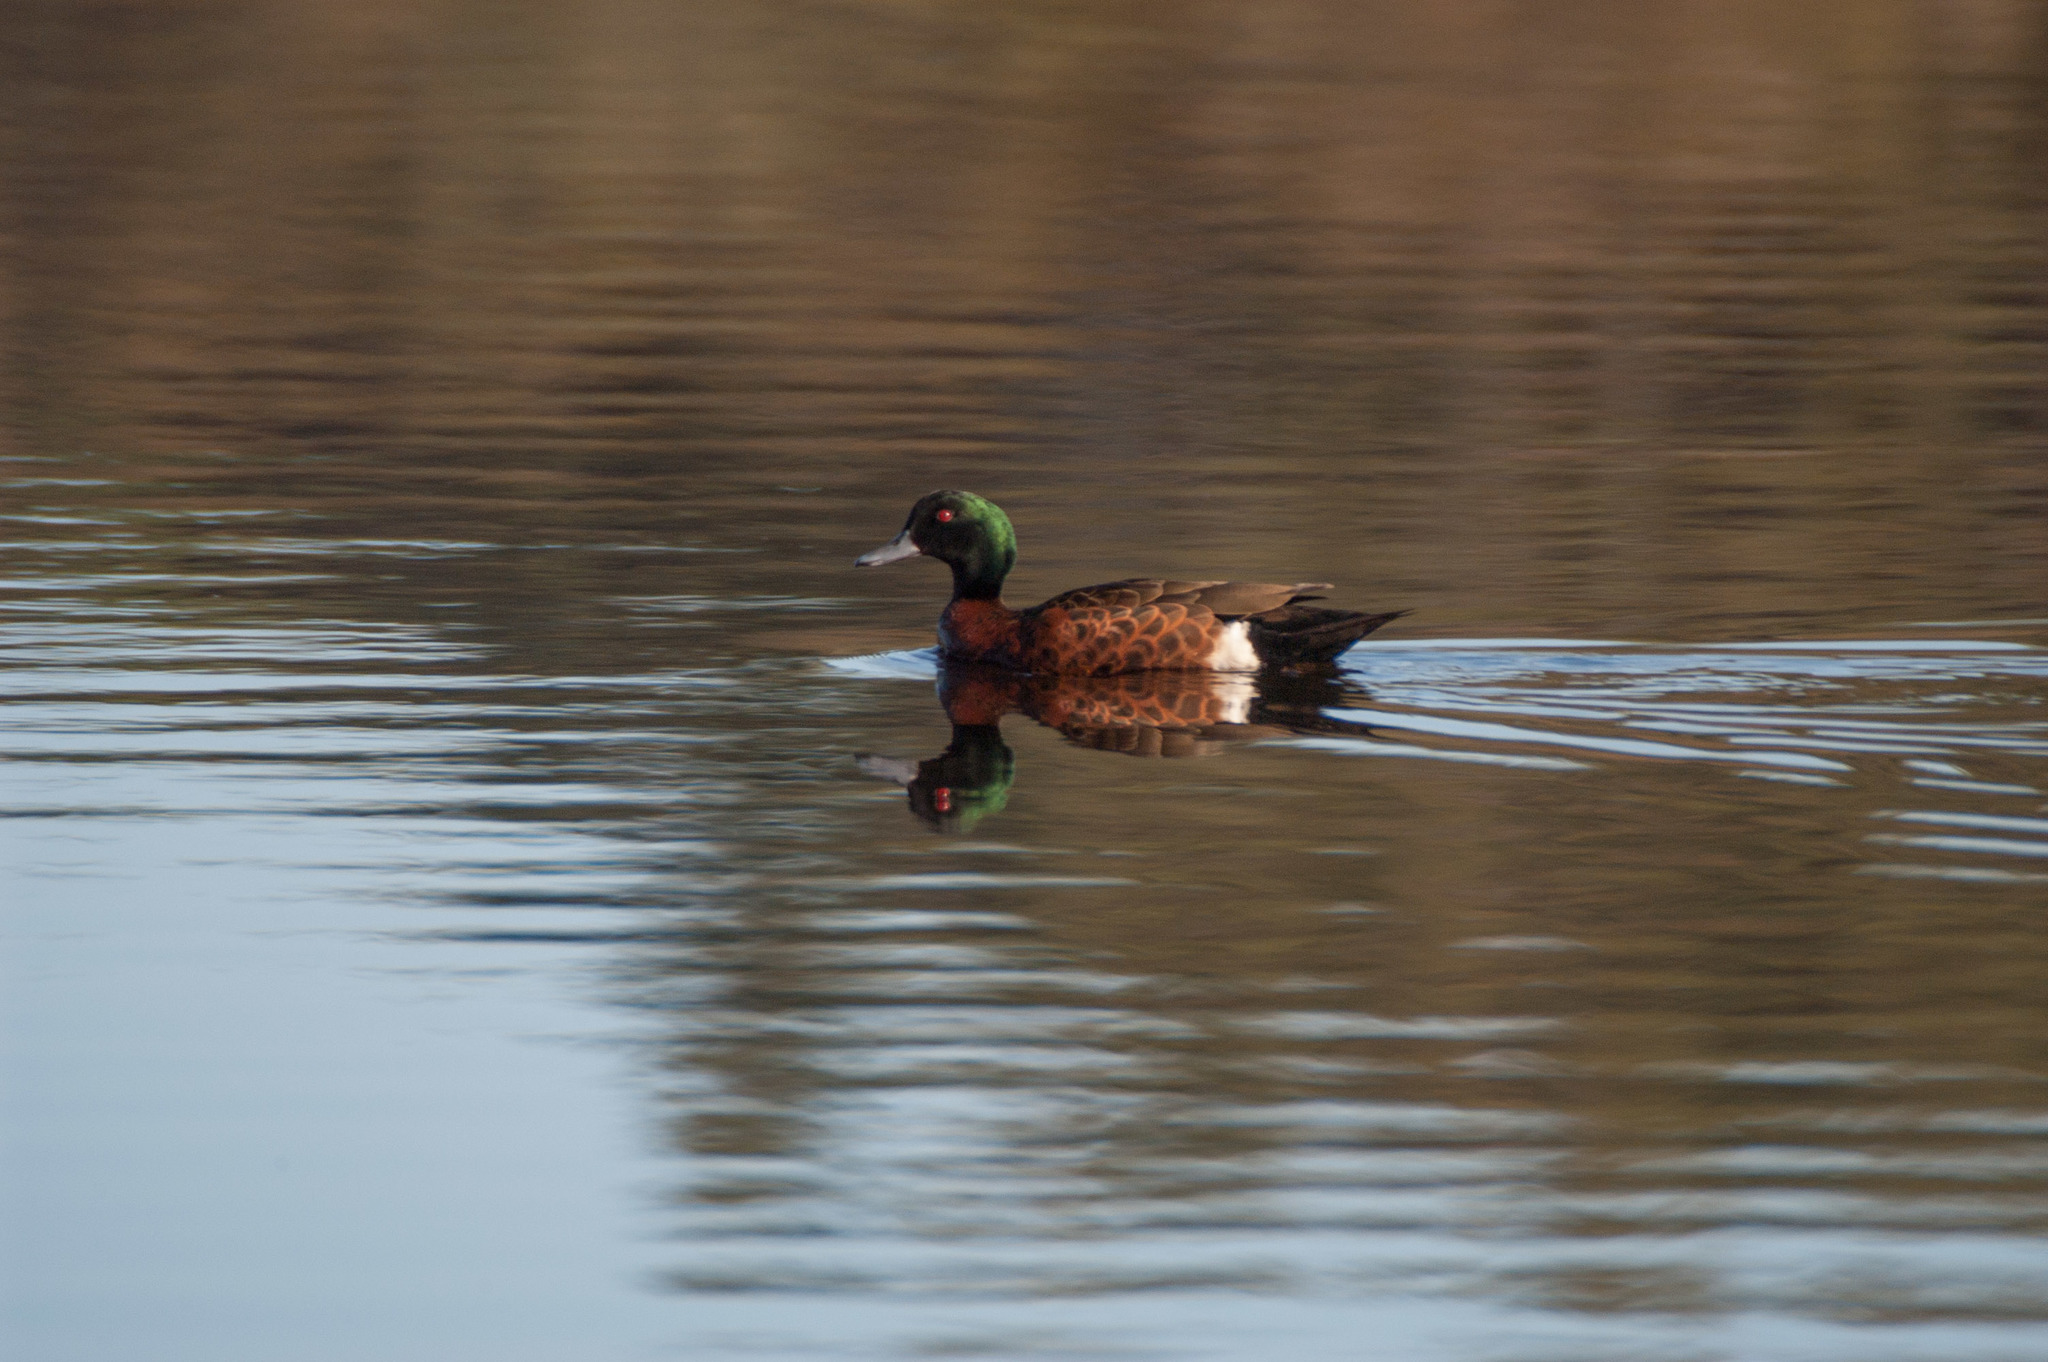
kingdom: Animalia
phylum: Chordata
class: Aves
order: Anseriformes
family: Anatidae
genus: Anas
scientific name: Anas castanea
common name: Chestnut teal
